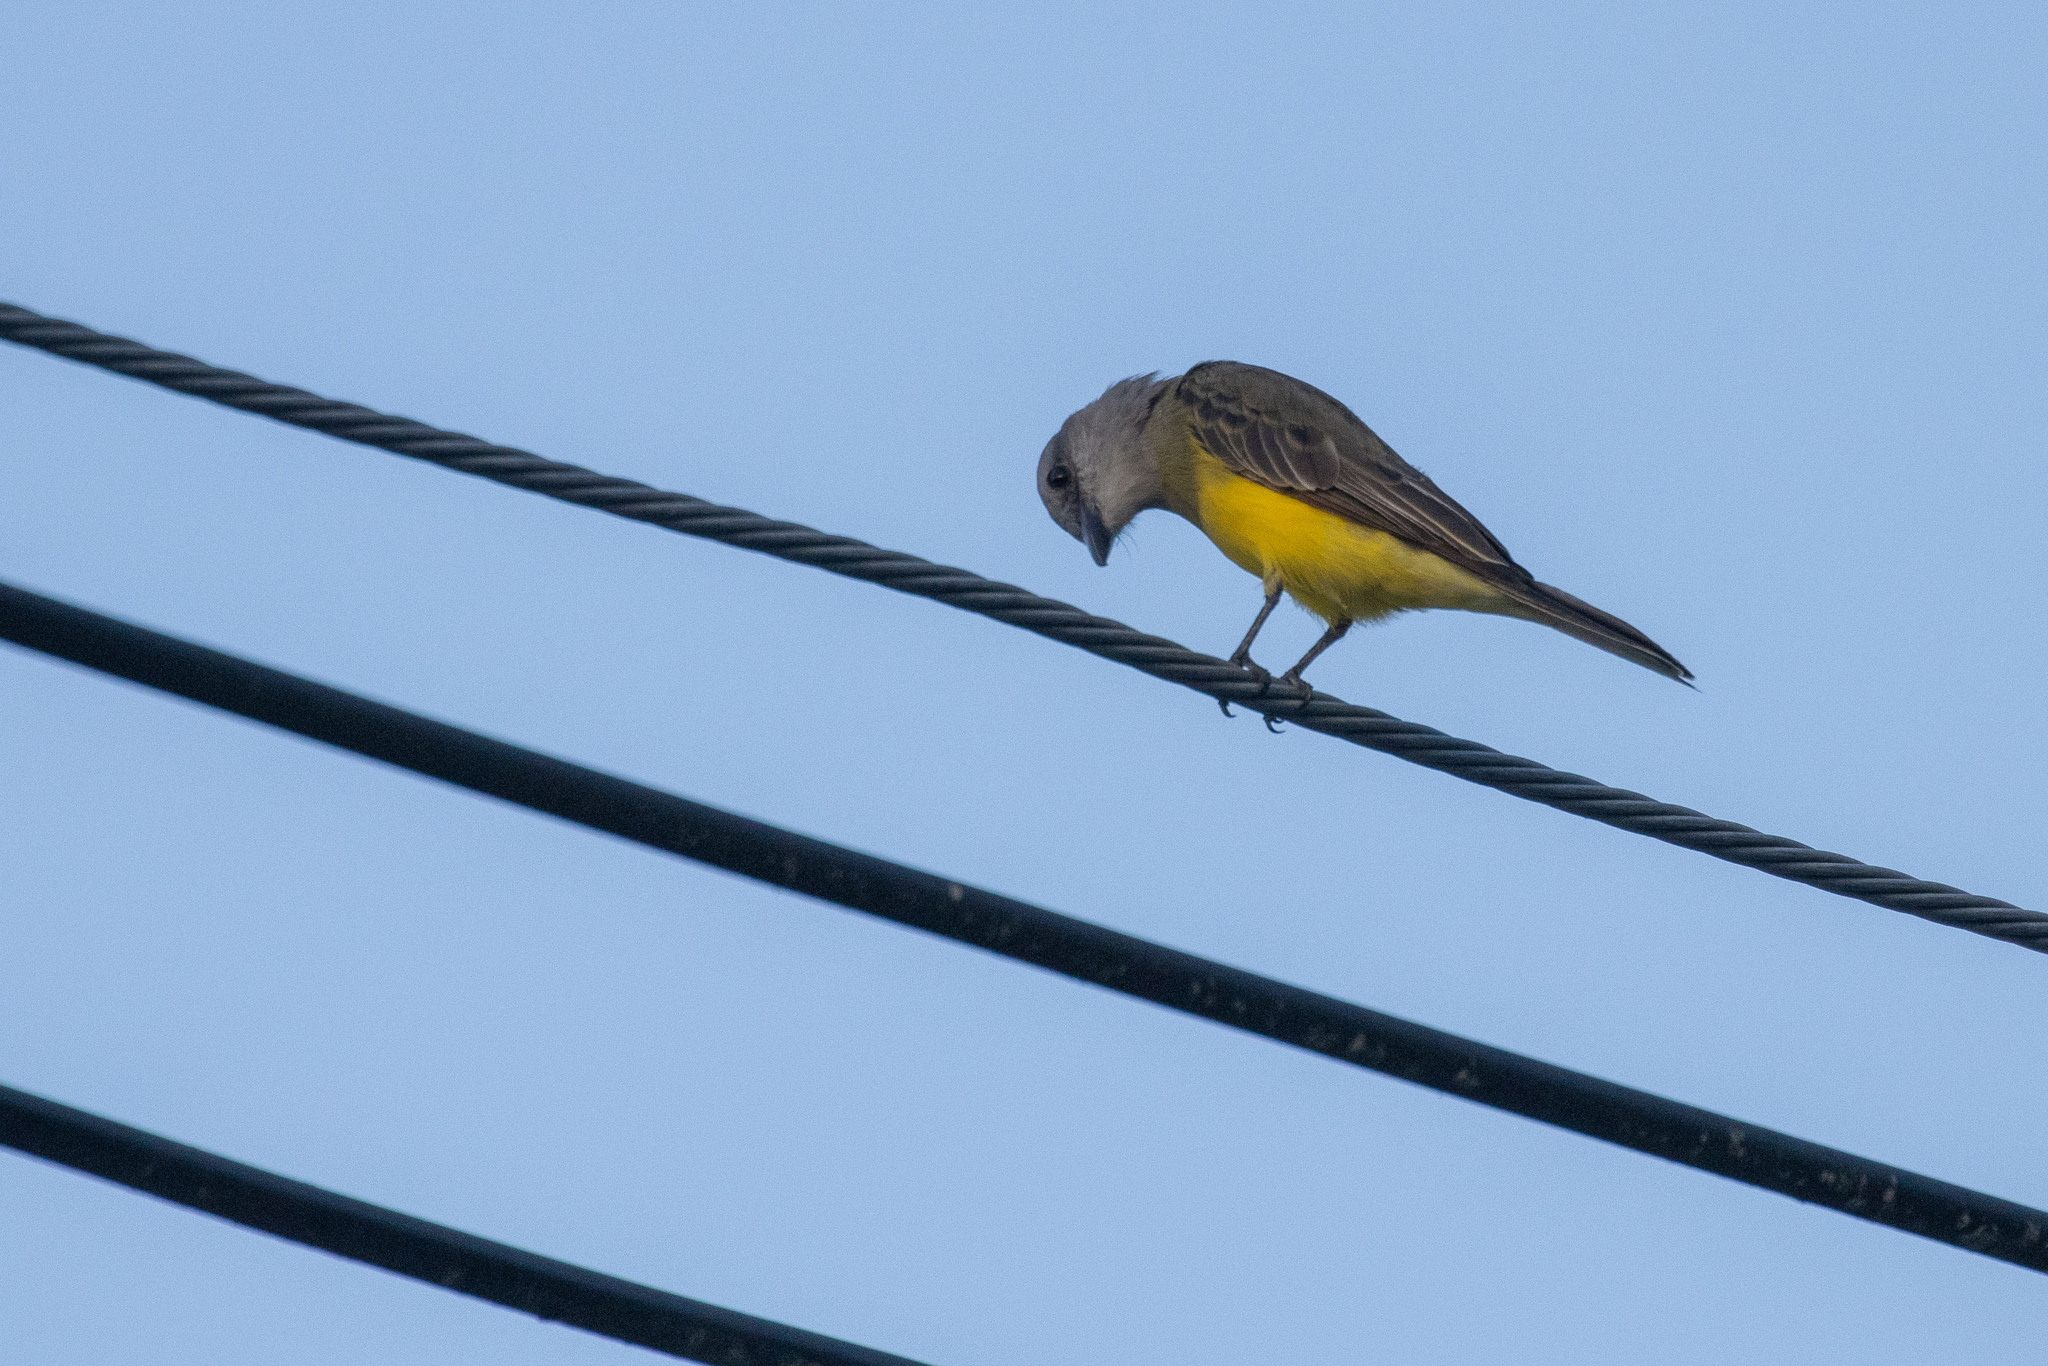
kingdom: Animalia
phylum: Chordata
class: Aves
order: Passeriformes
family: Tyrannidae
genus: Tyrannus
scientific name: Tyrannus melancholicus
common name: Tropical kingbird
